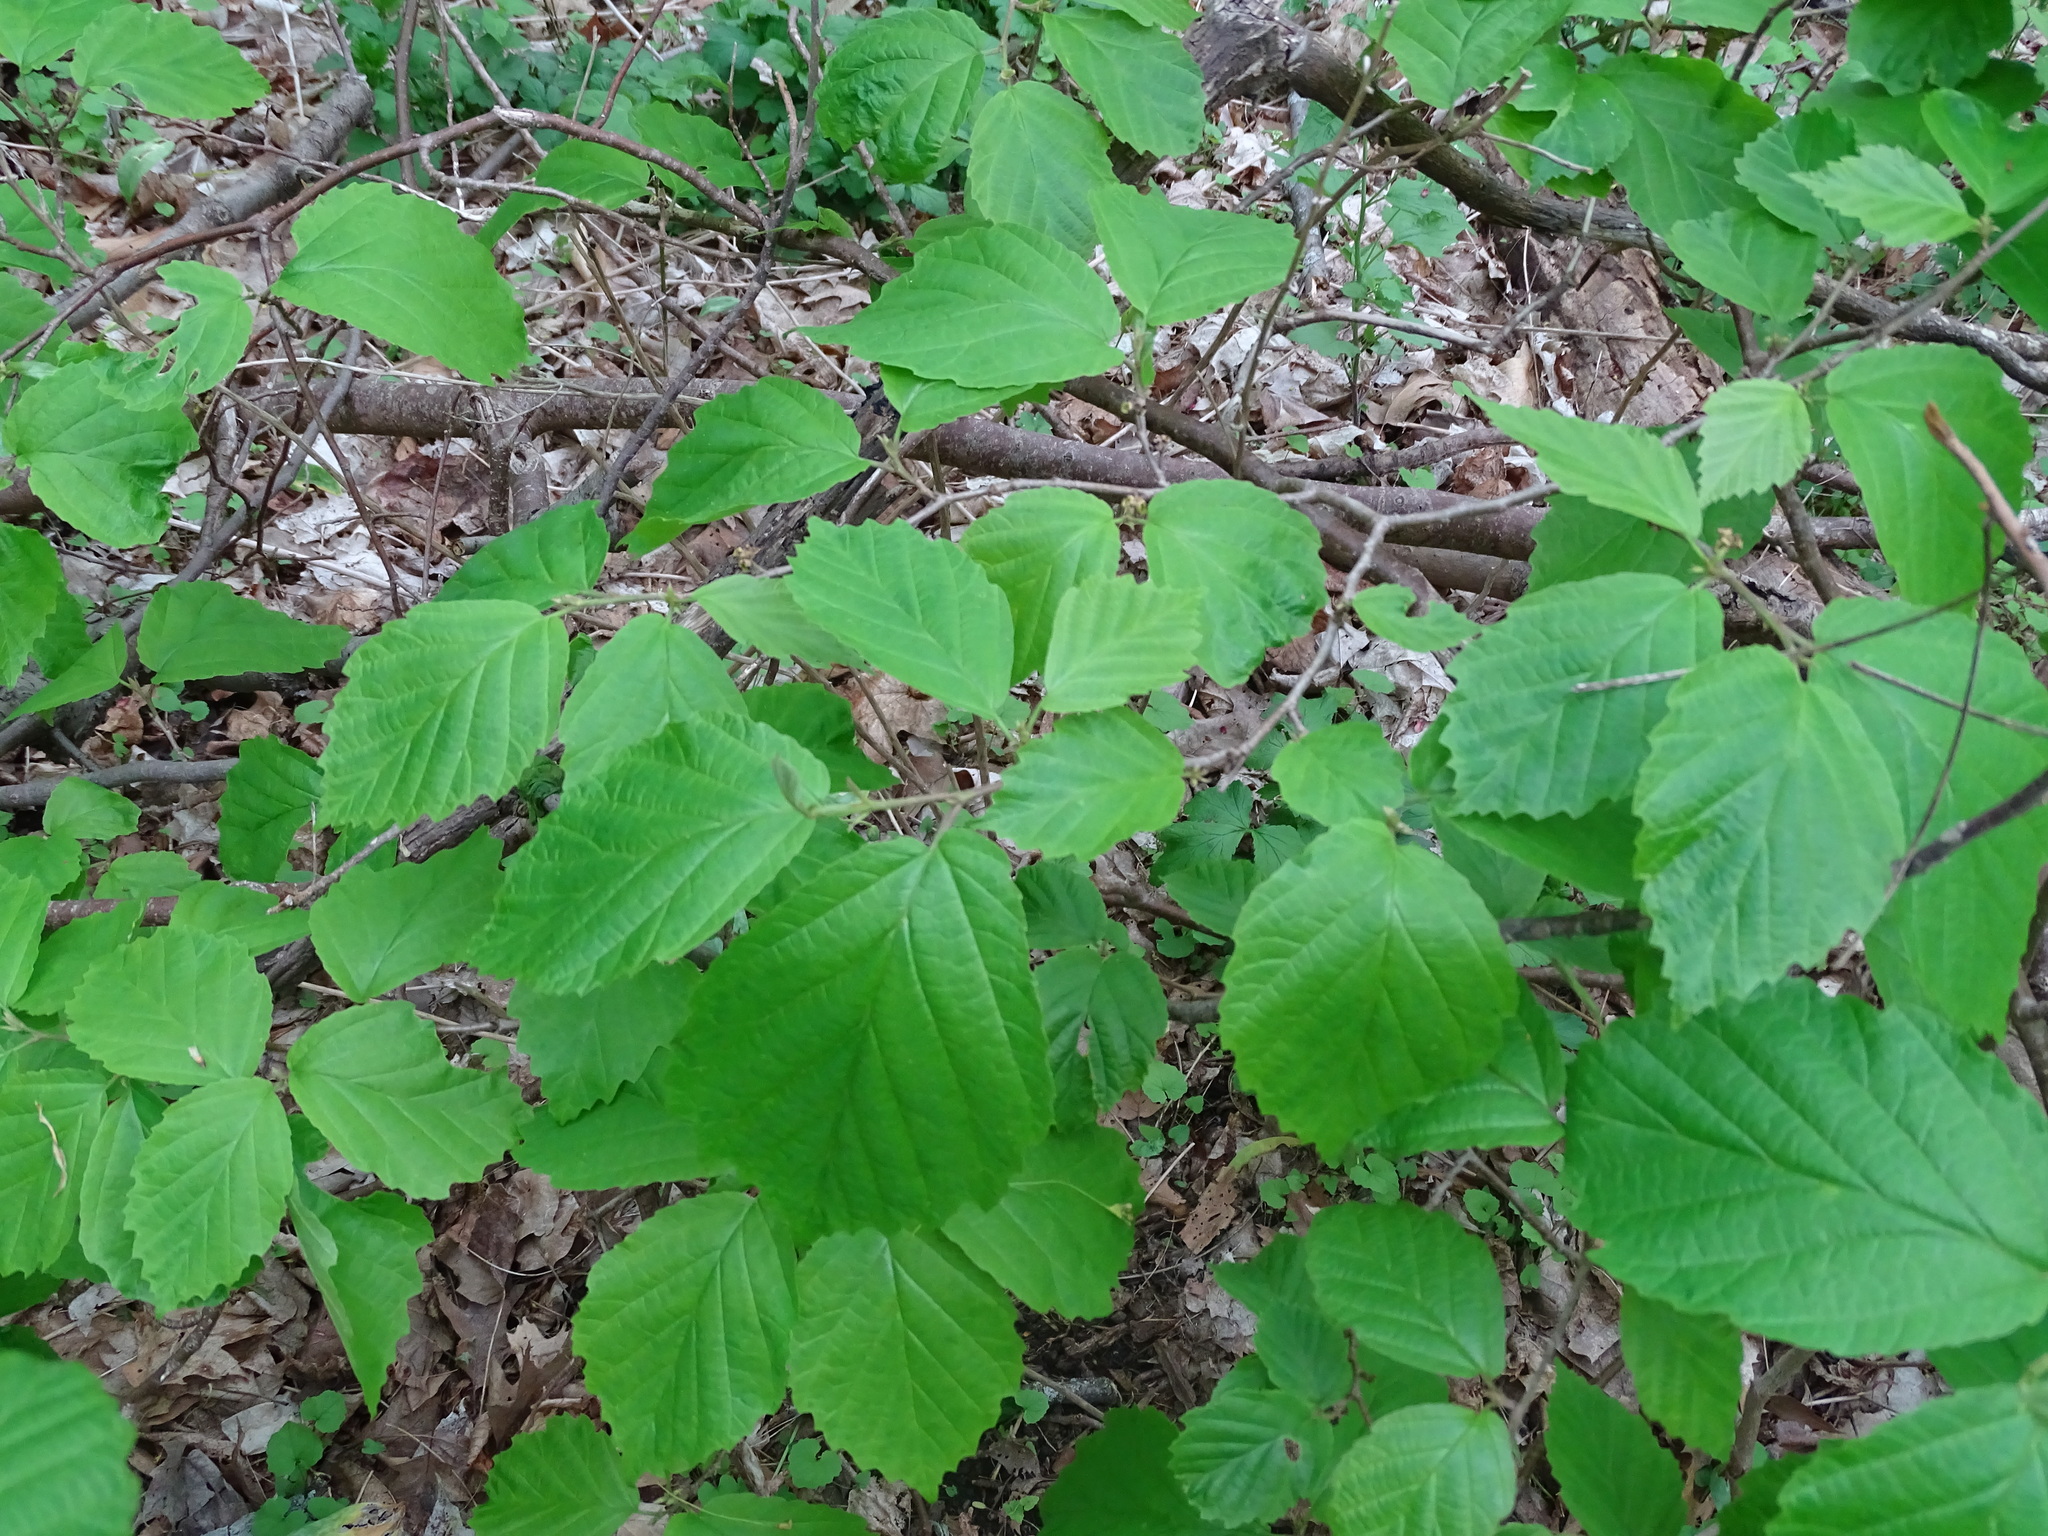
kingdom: Plantae
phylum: Tracheophyta
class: Magnoliopsida
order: Saxifragales
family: Hamamelidaceae
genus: Hamamelis
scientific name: Hamamelis virginiana
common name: Witch-hazel
